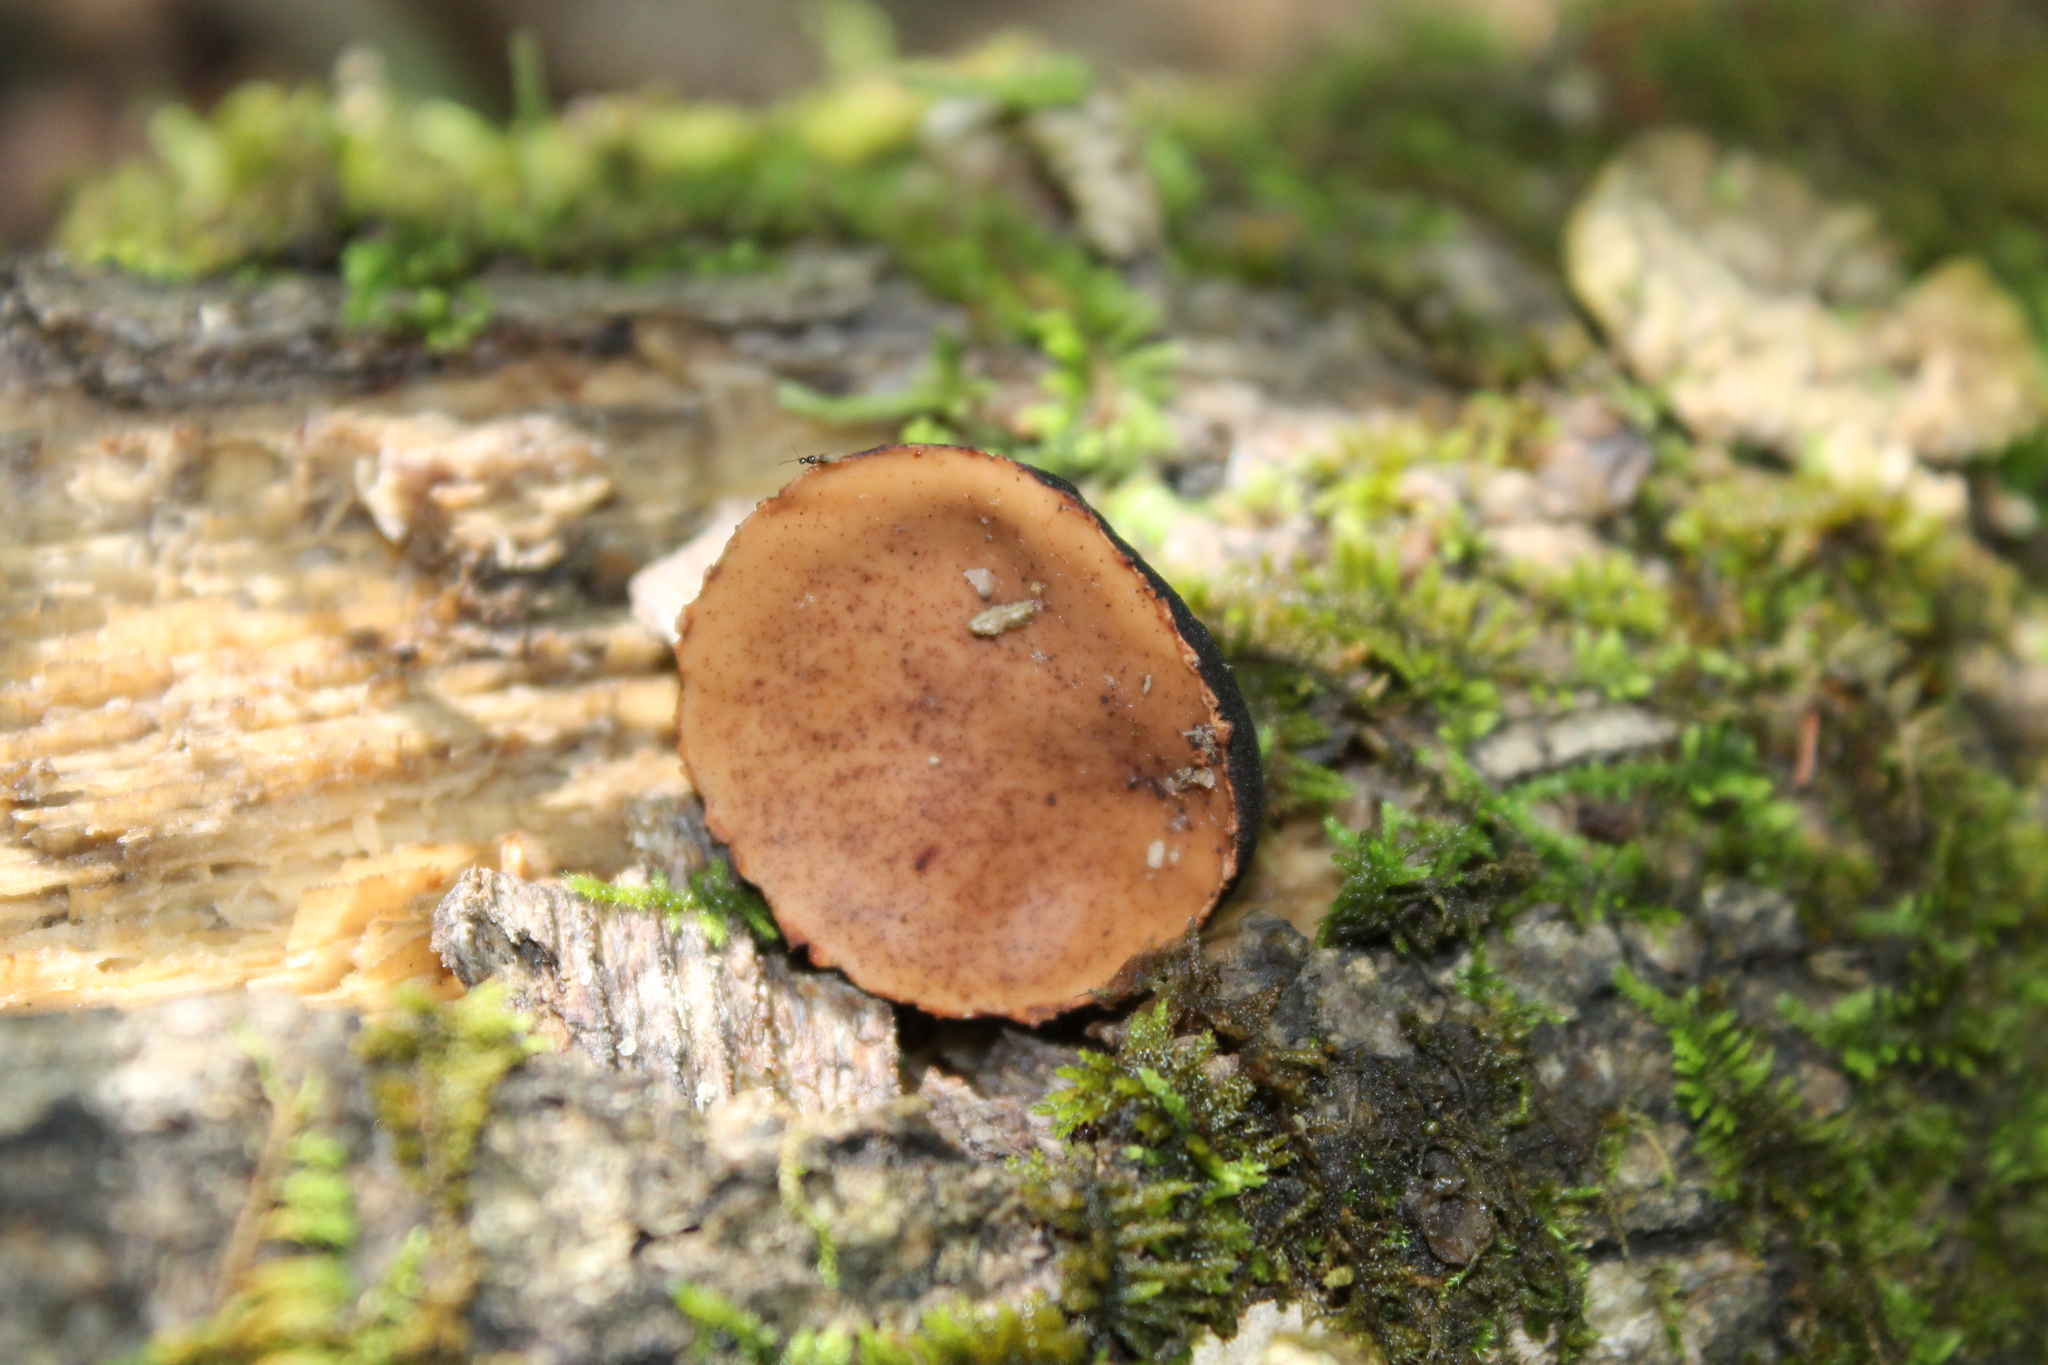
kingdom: Fungi
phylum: Ascomycota
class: Pezizomycetes
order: Pezizales
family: Sarcosomataceae
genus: Galiella
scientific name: Galiella rufa
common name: Hairy rubber cup
